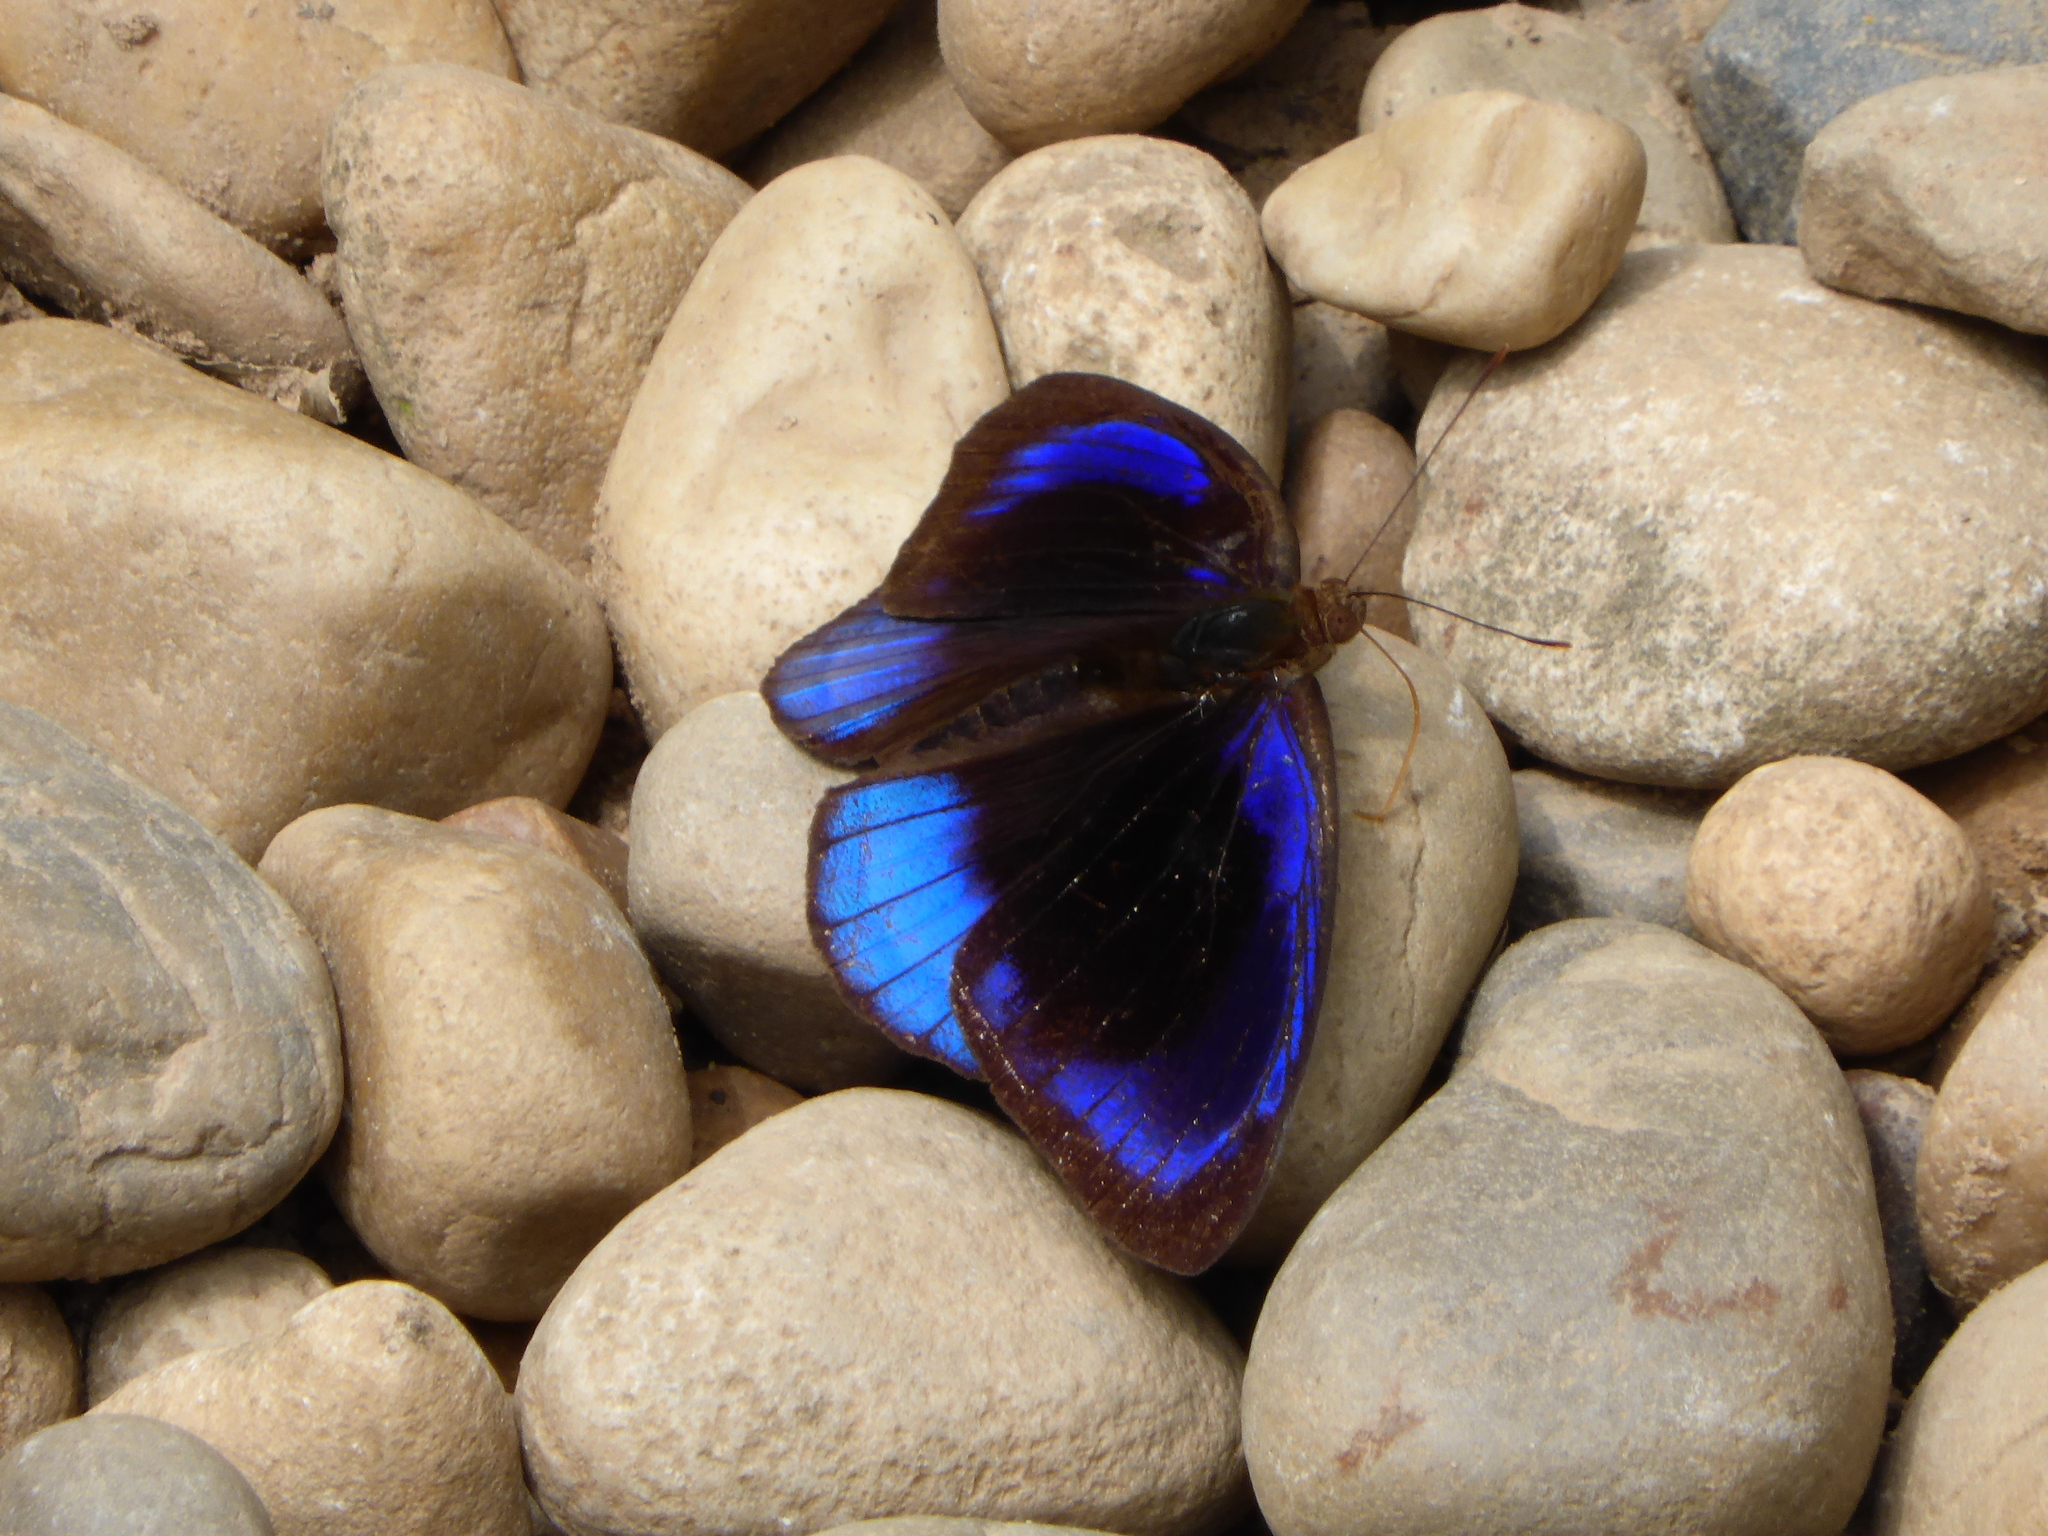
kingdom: Animalia
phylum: Arthropoda
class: Insecta
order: Lepidoptera
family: Nymphalidae
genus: Eunica
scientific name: Eunica eurota
